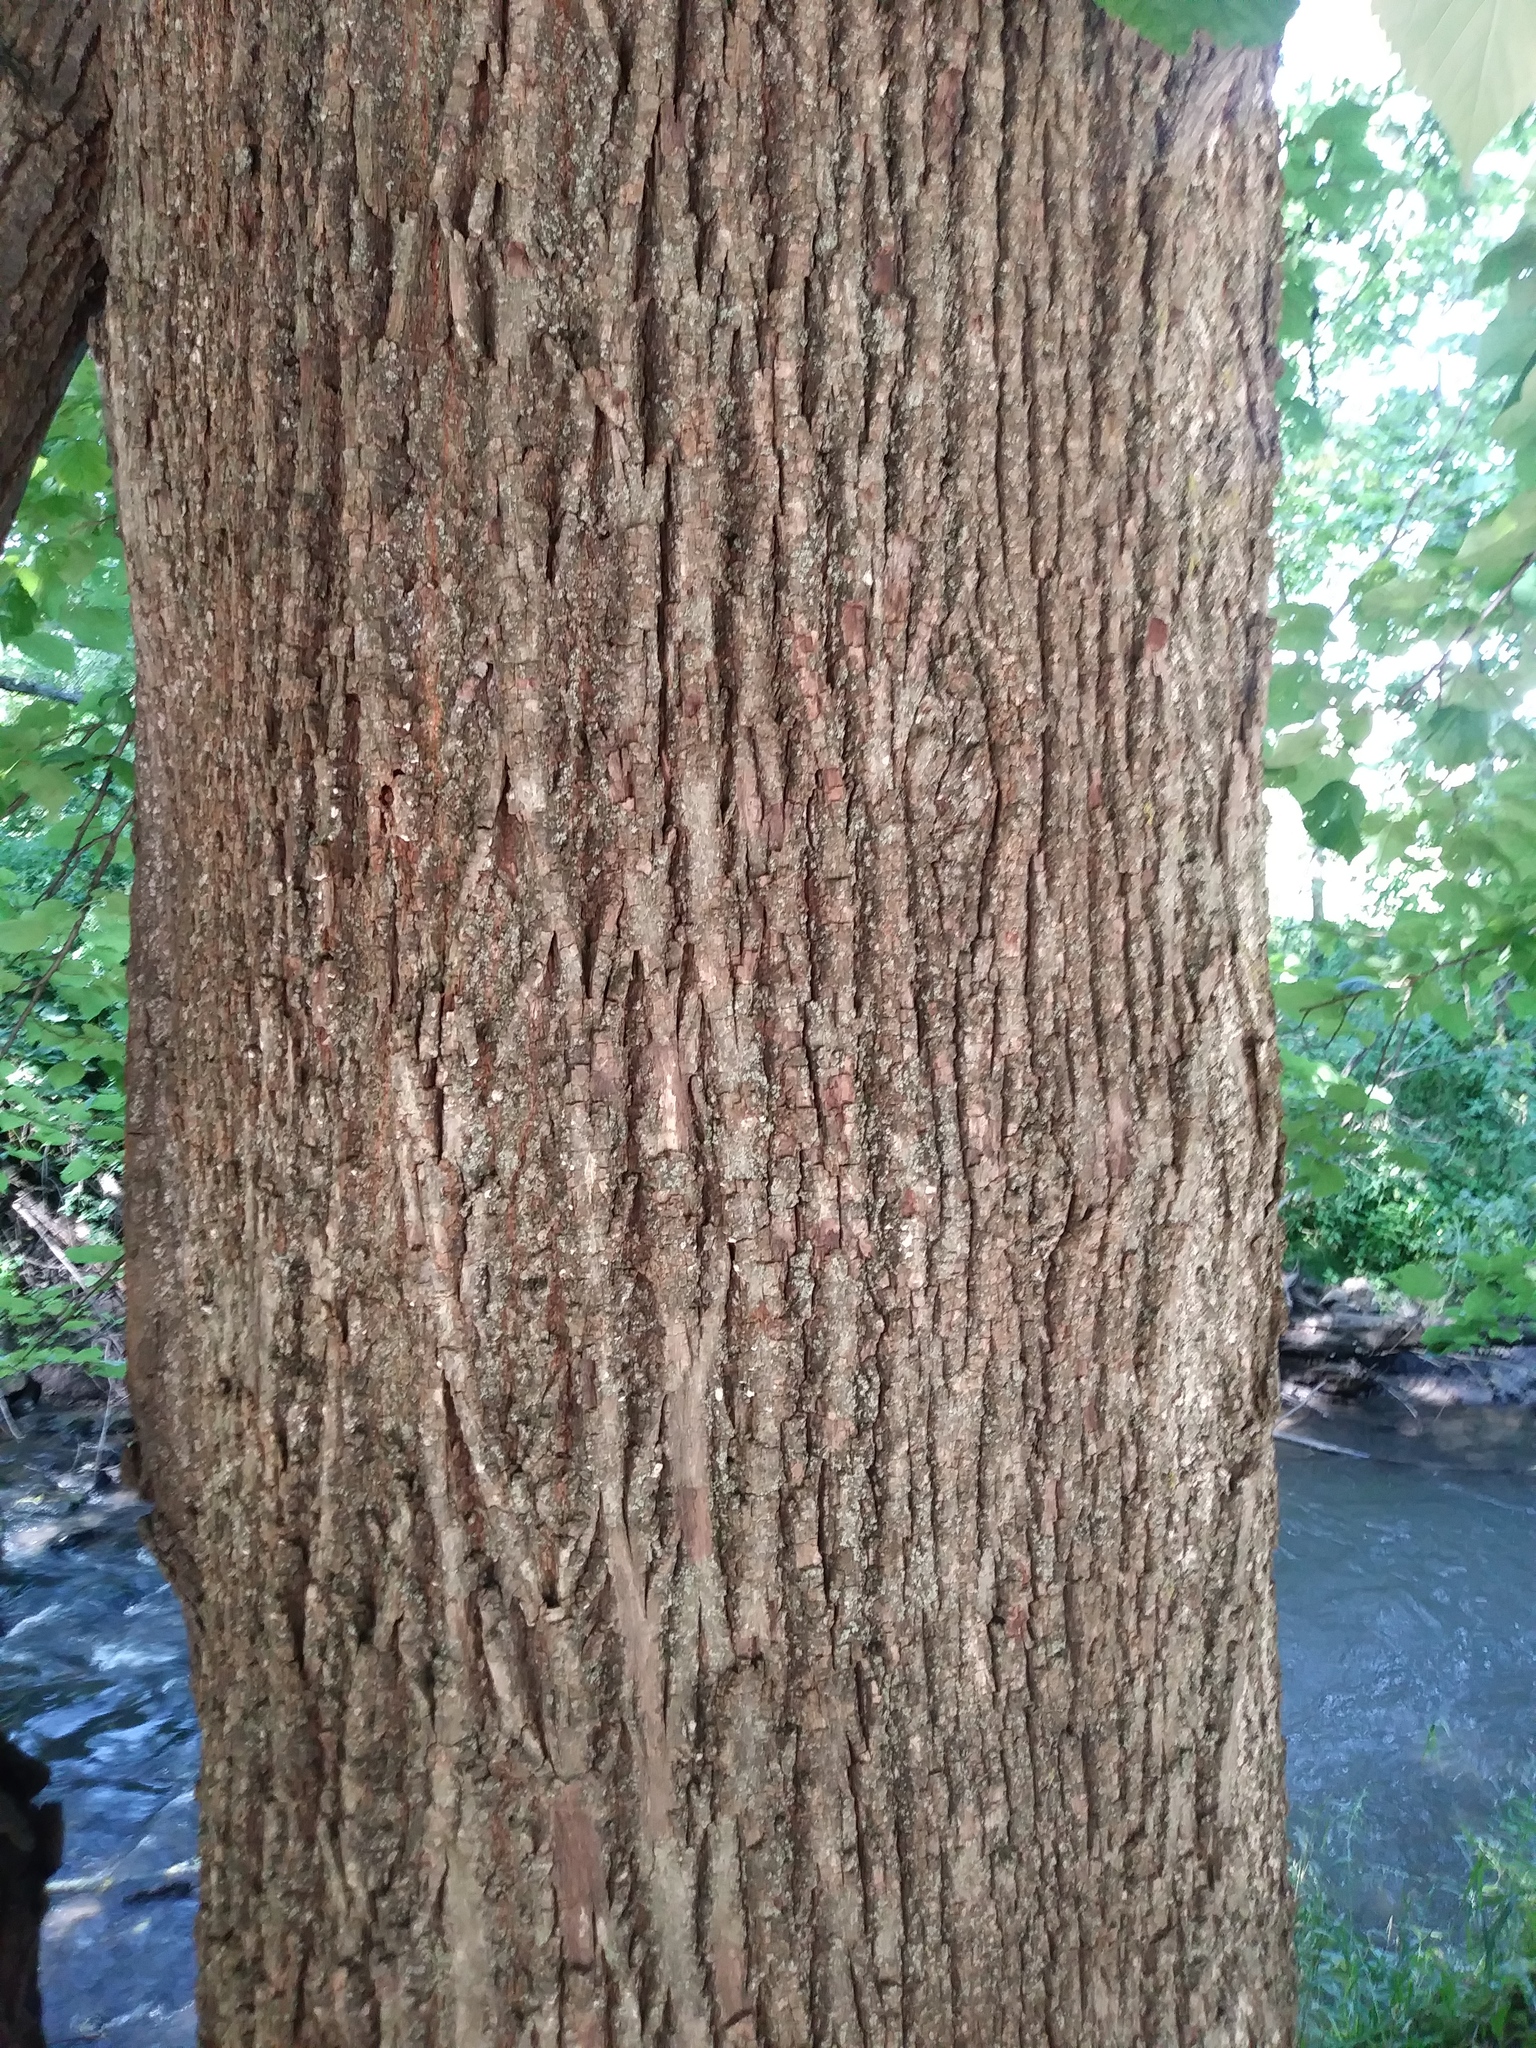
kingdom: Plantae
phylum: Tracheophyta
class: Magnoliopsida
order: Malvales
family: Malvaceae
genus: Tilia
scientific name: Tilia americana
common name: Basswood
